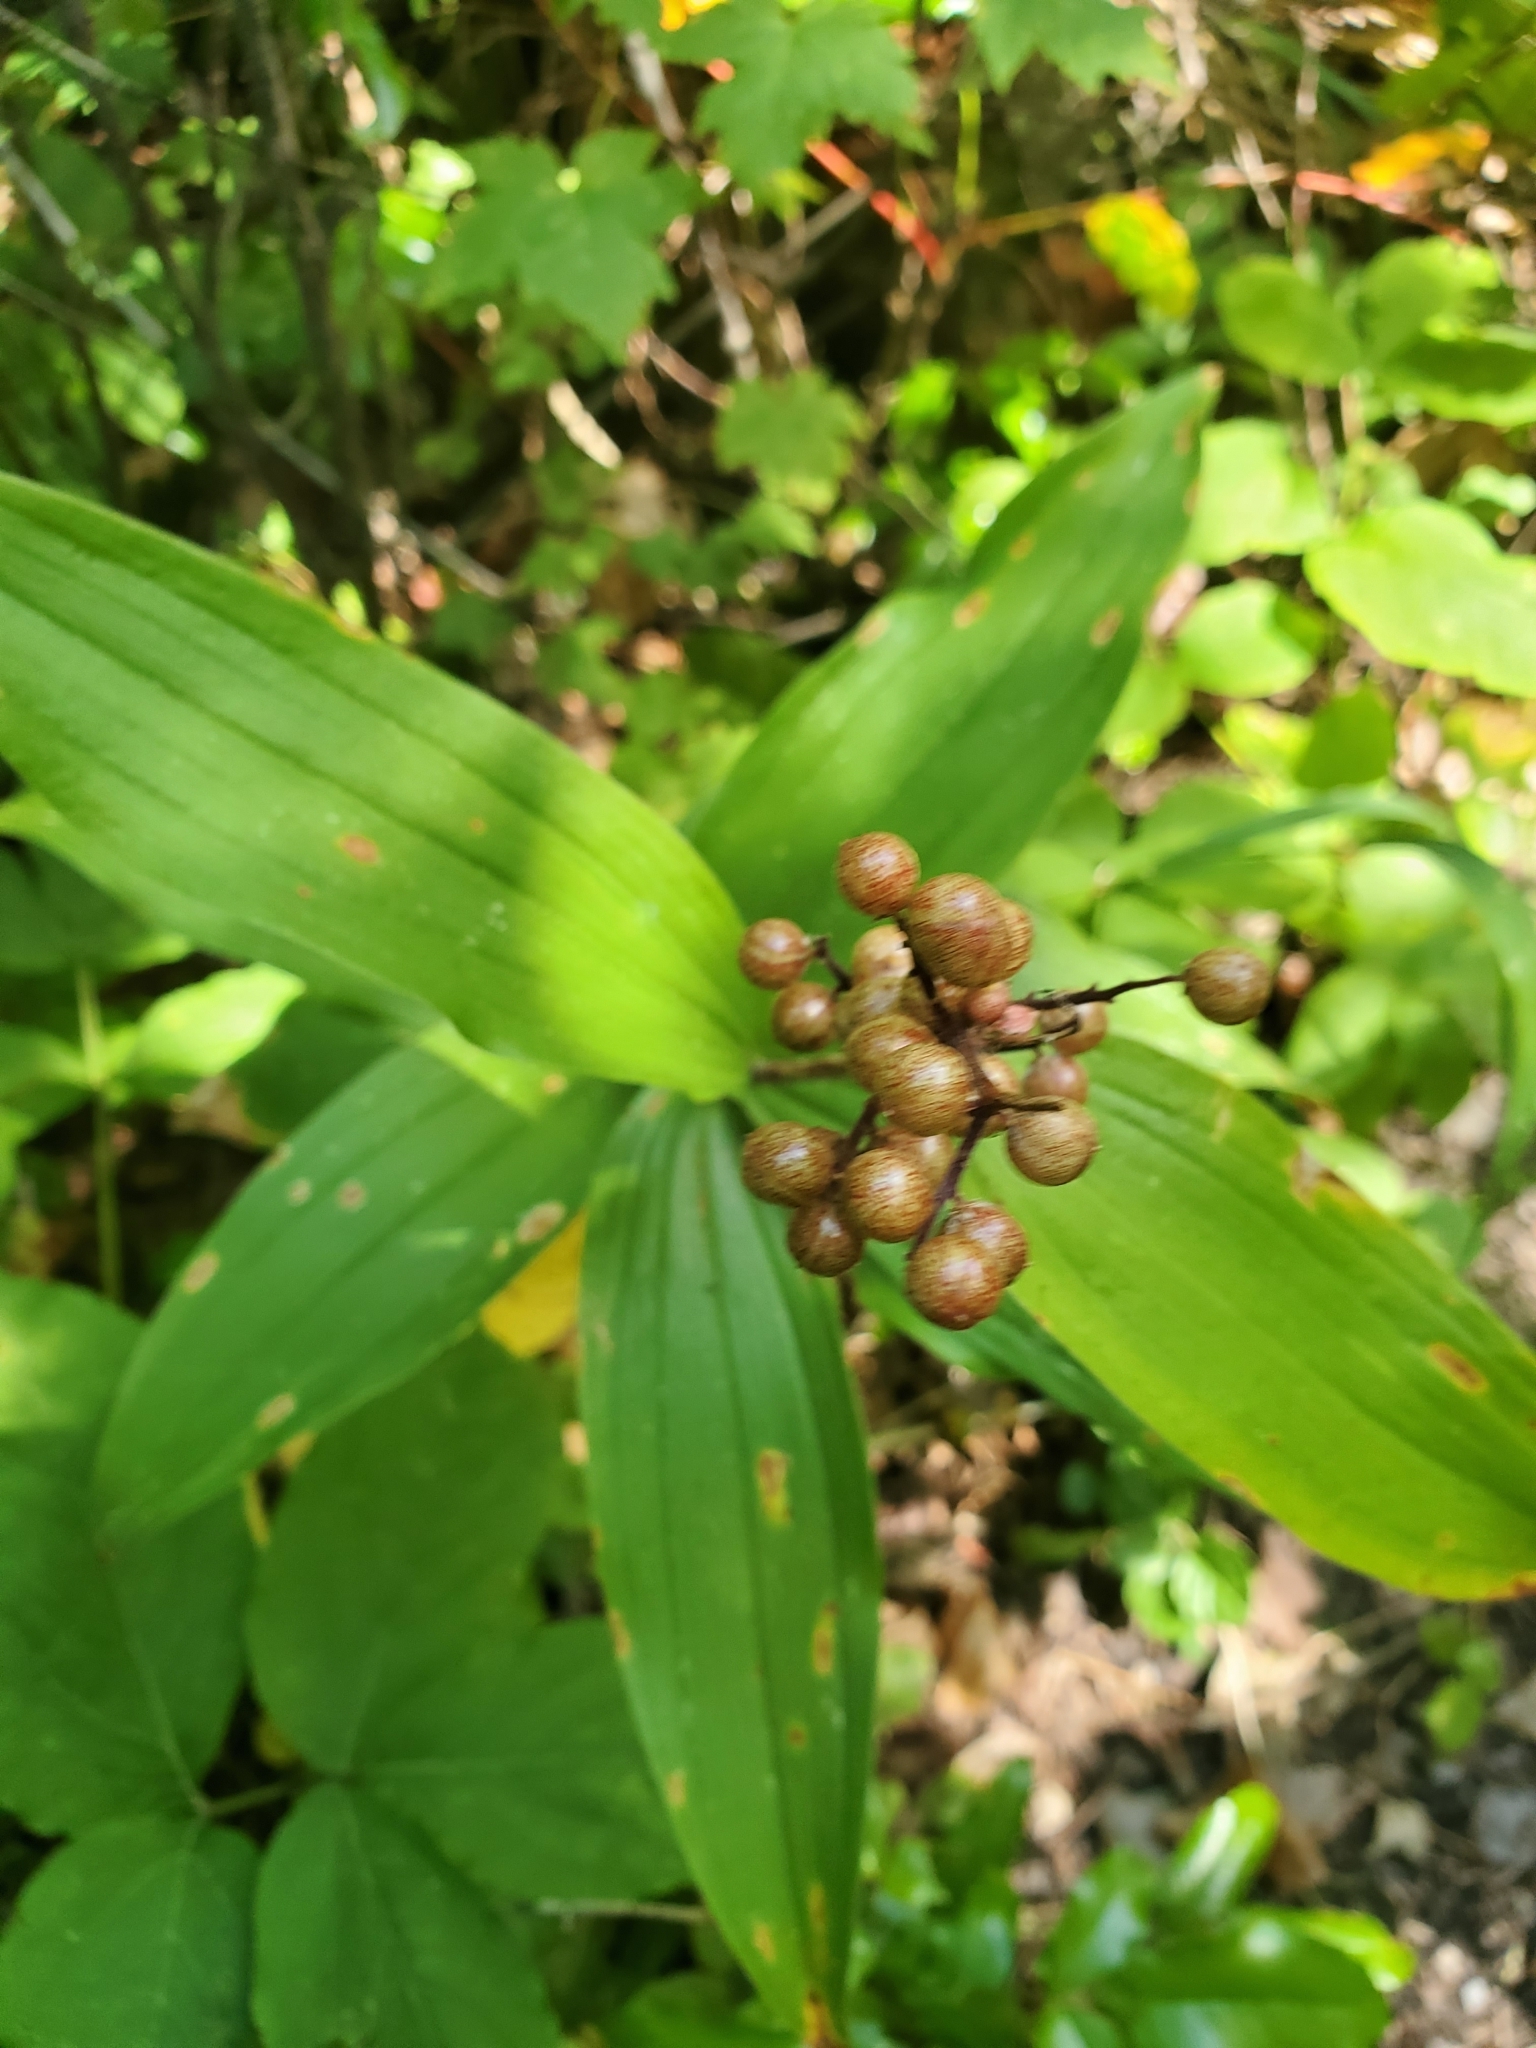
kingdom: Plantae
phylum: Tracheophyta
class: Liliopsida
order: Asparagales
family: Asparagaceae
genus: Maianthemum
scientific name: Maianthemum racemosum
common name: False spikenard
